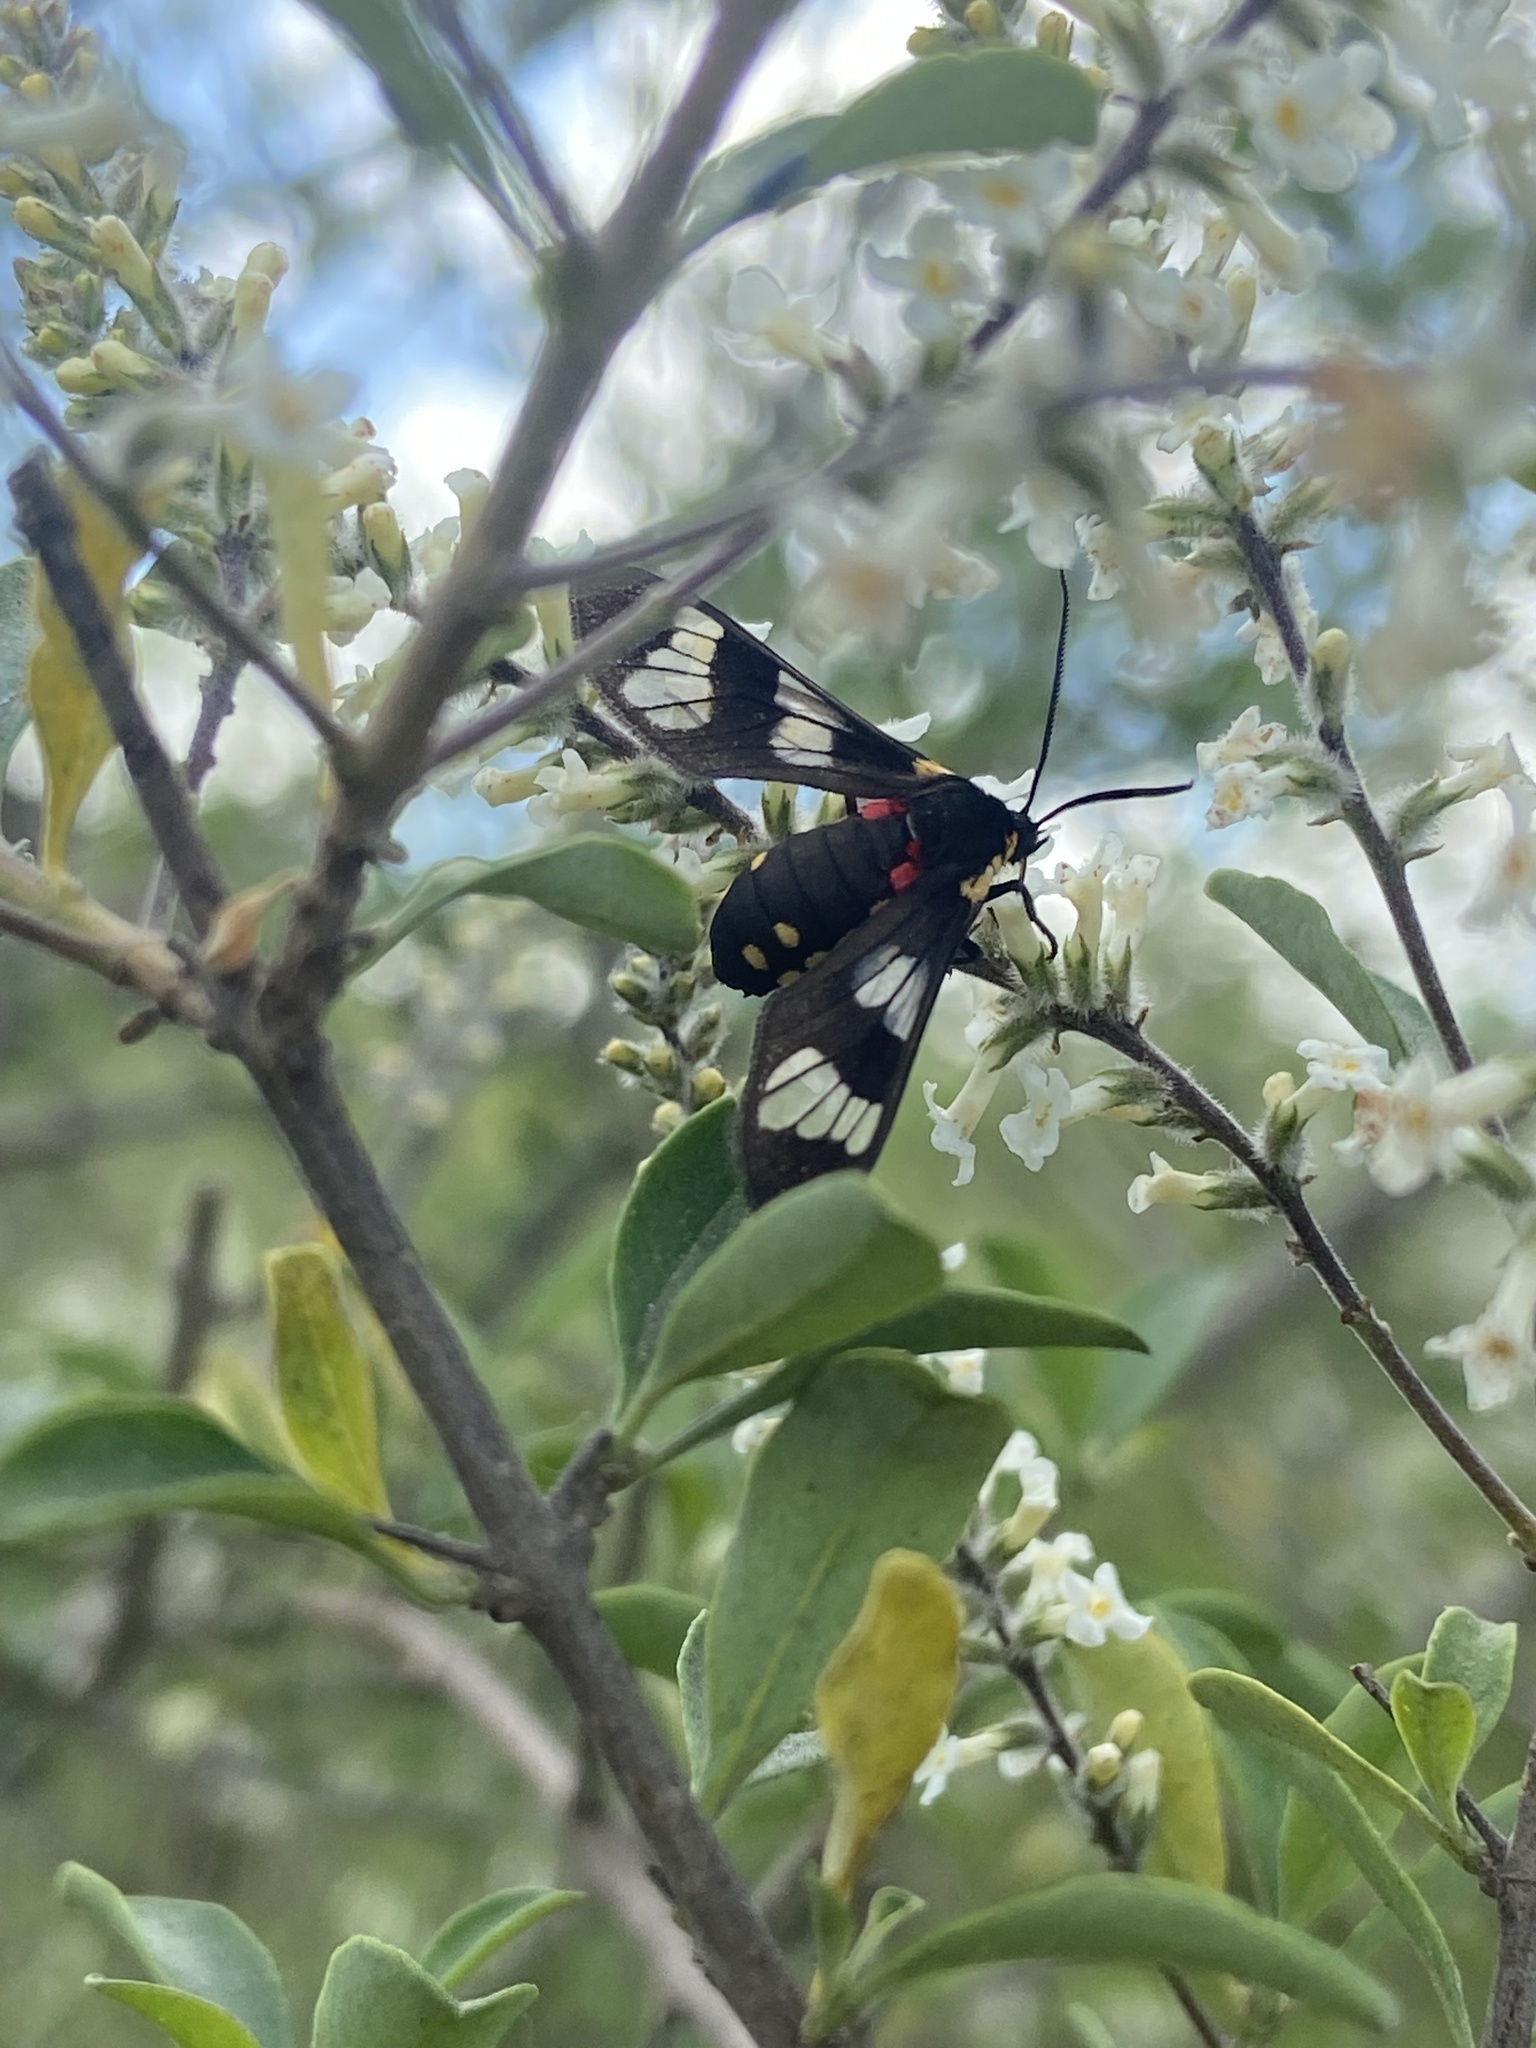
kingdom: Animalia
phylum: Arthropoda
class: Insecta
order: Lepidoptera
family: Erebidae
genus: Eurata
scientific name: Eurata hermione
